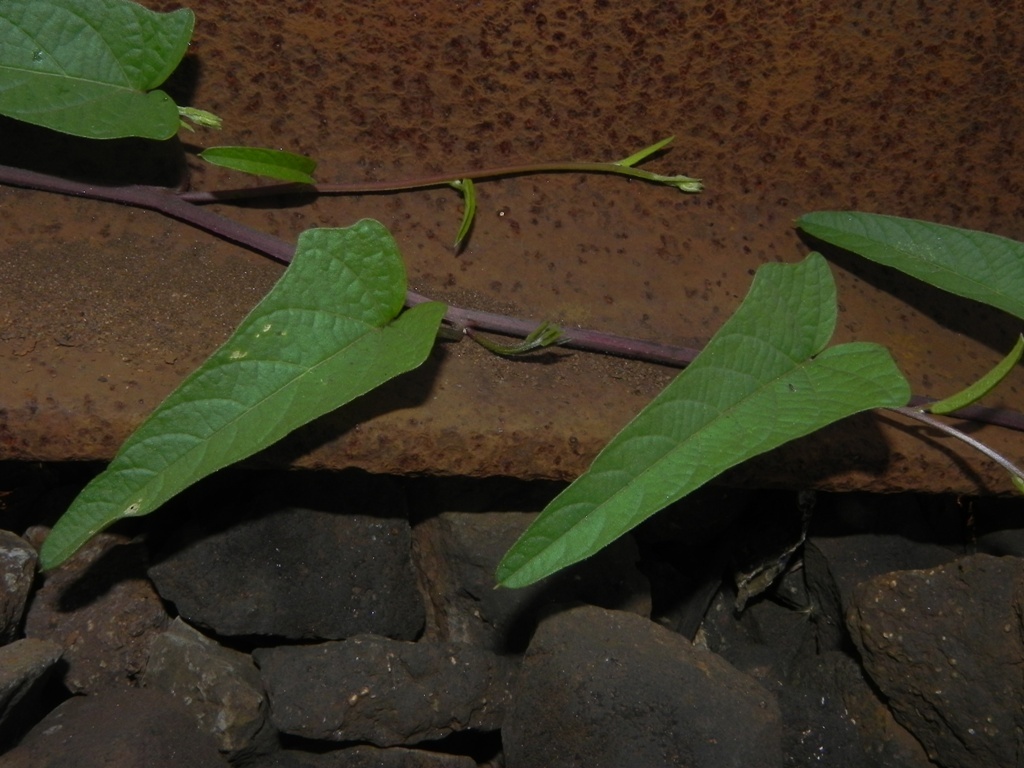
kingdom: Plantae
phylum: Tracheophyta
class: Magnoliopsida
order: Solanales
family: Convolvulaceae
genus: Operculina
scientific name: Operculina turpethum
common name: Transparent wood-rose
